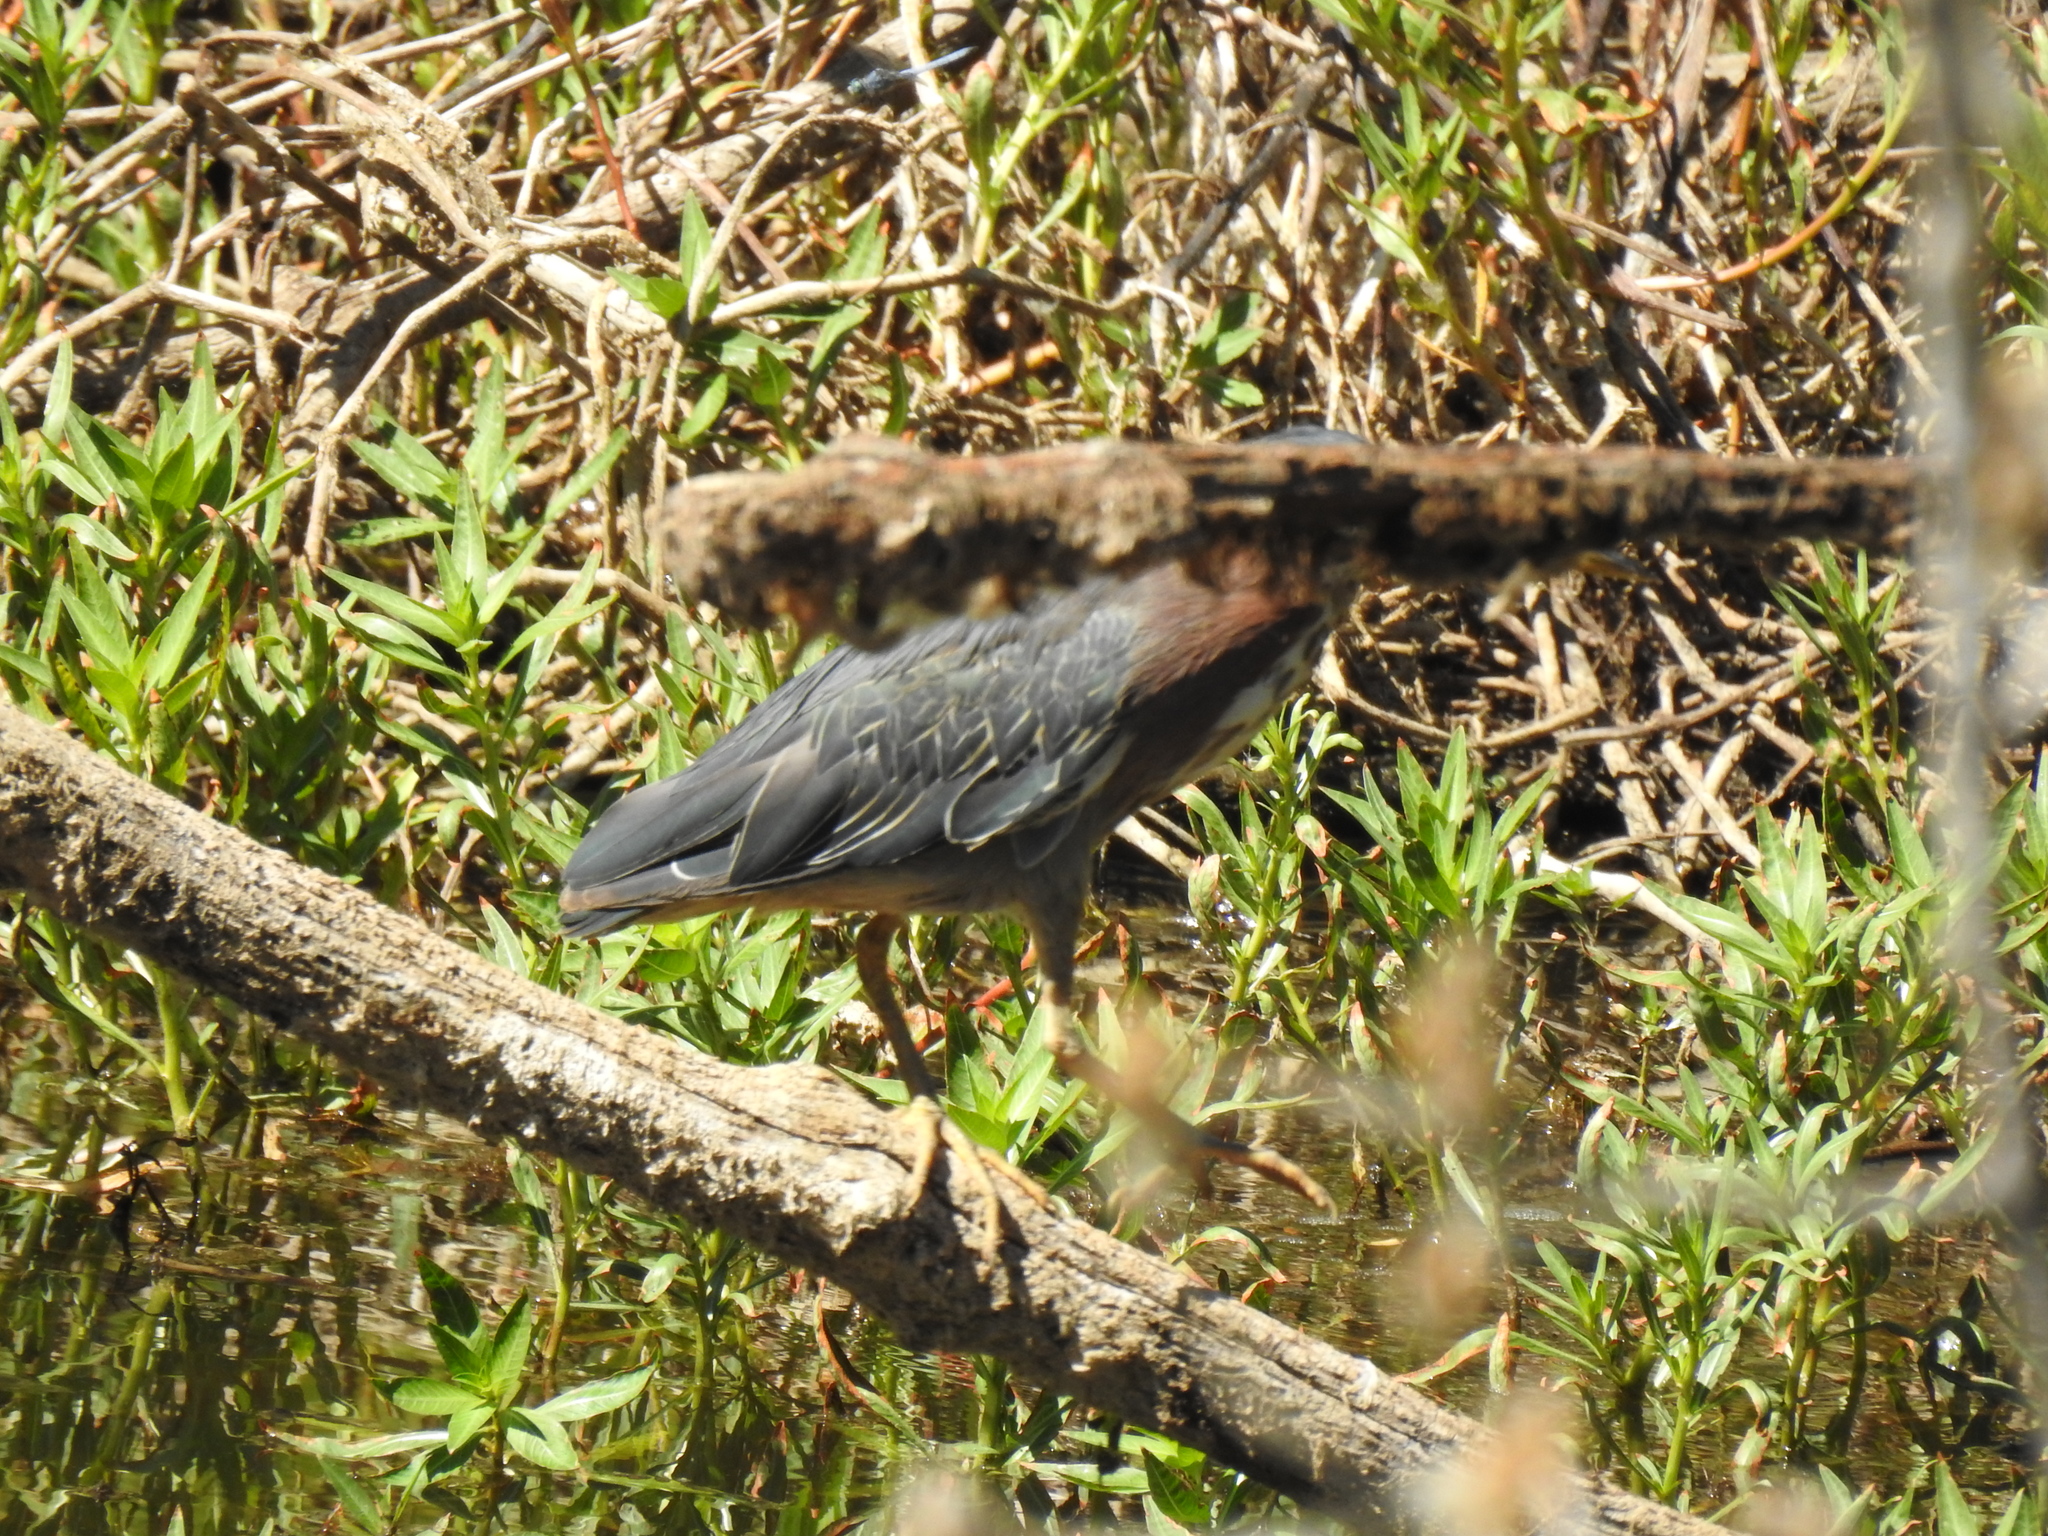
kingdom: Animalia
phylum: Chordata
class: Aves
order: Pelecaniformes
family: Ardeidae
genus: Butorides
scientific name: Butorides virescens
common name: Green heron
